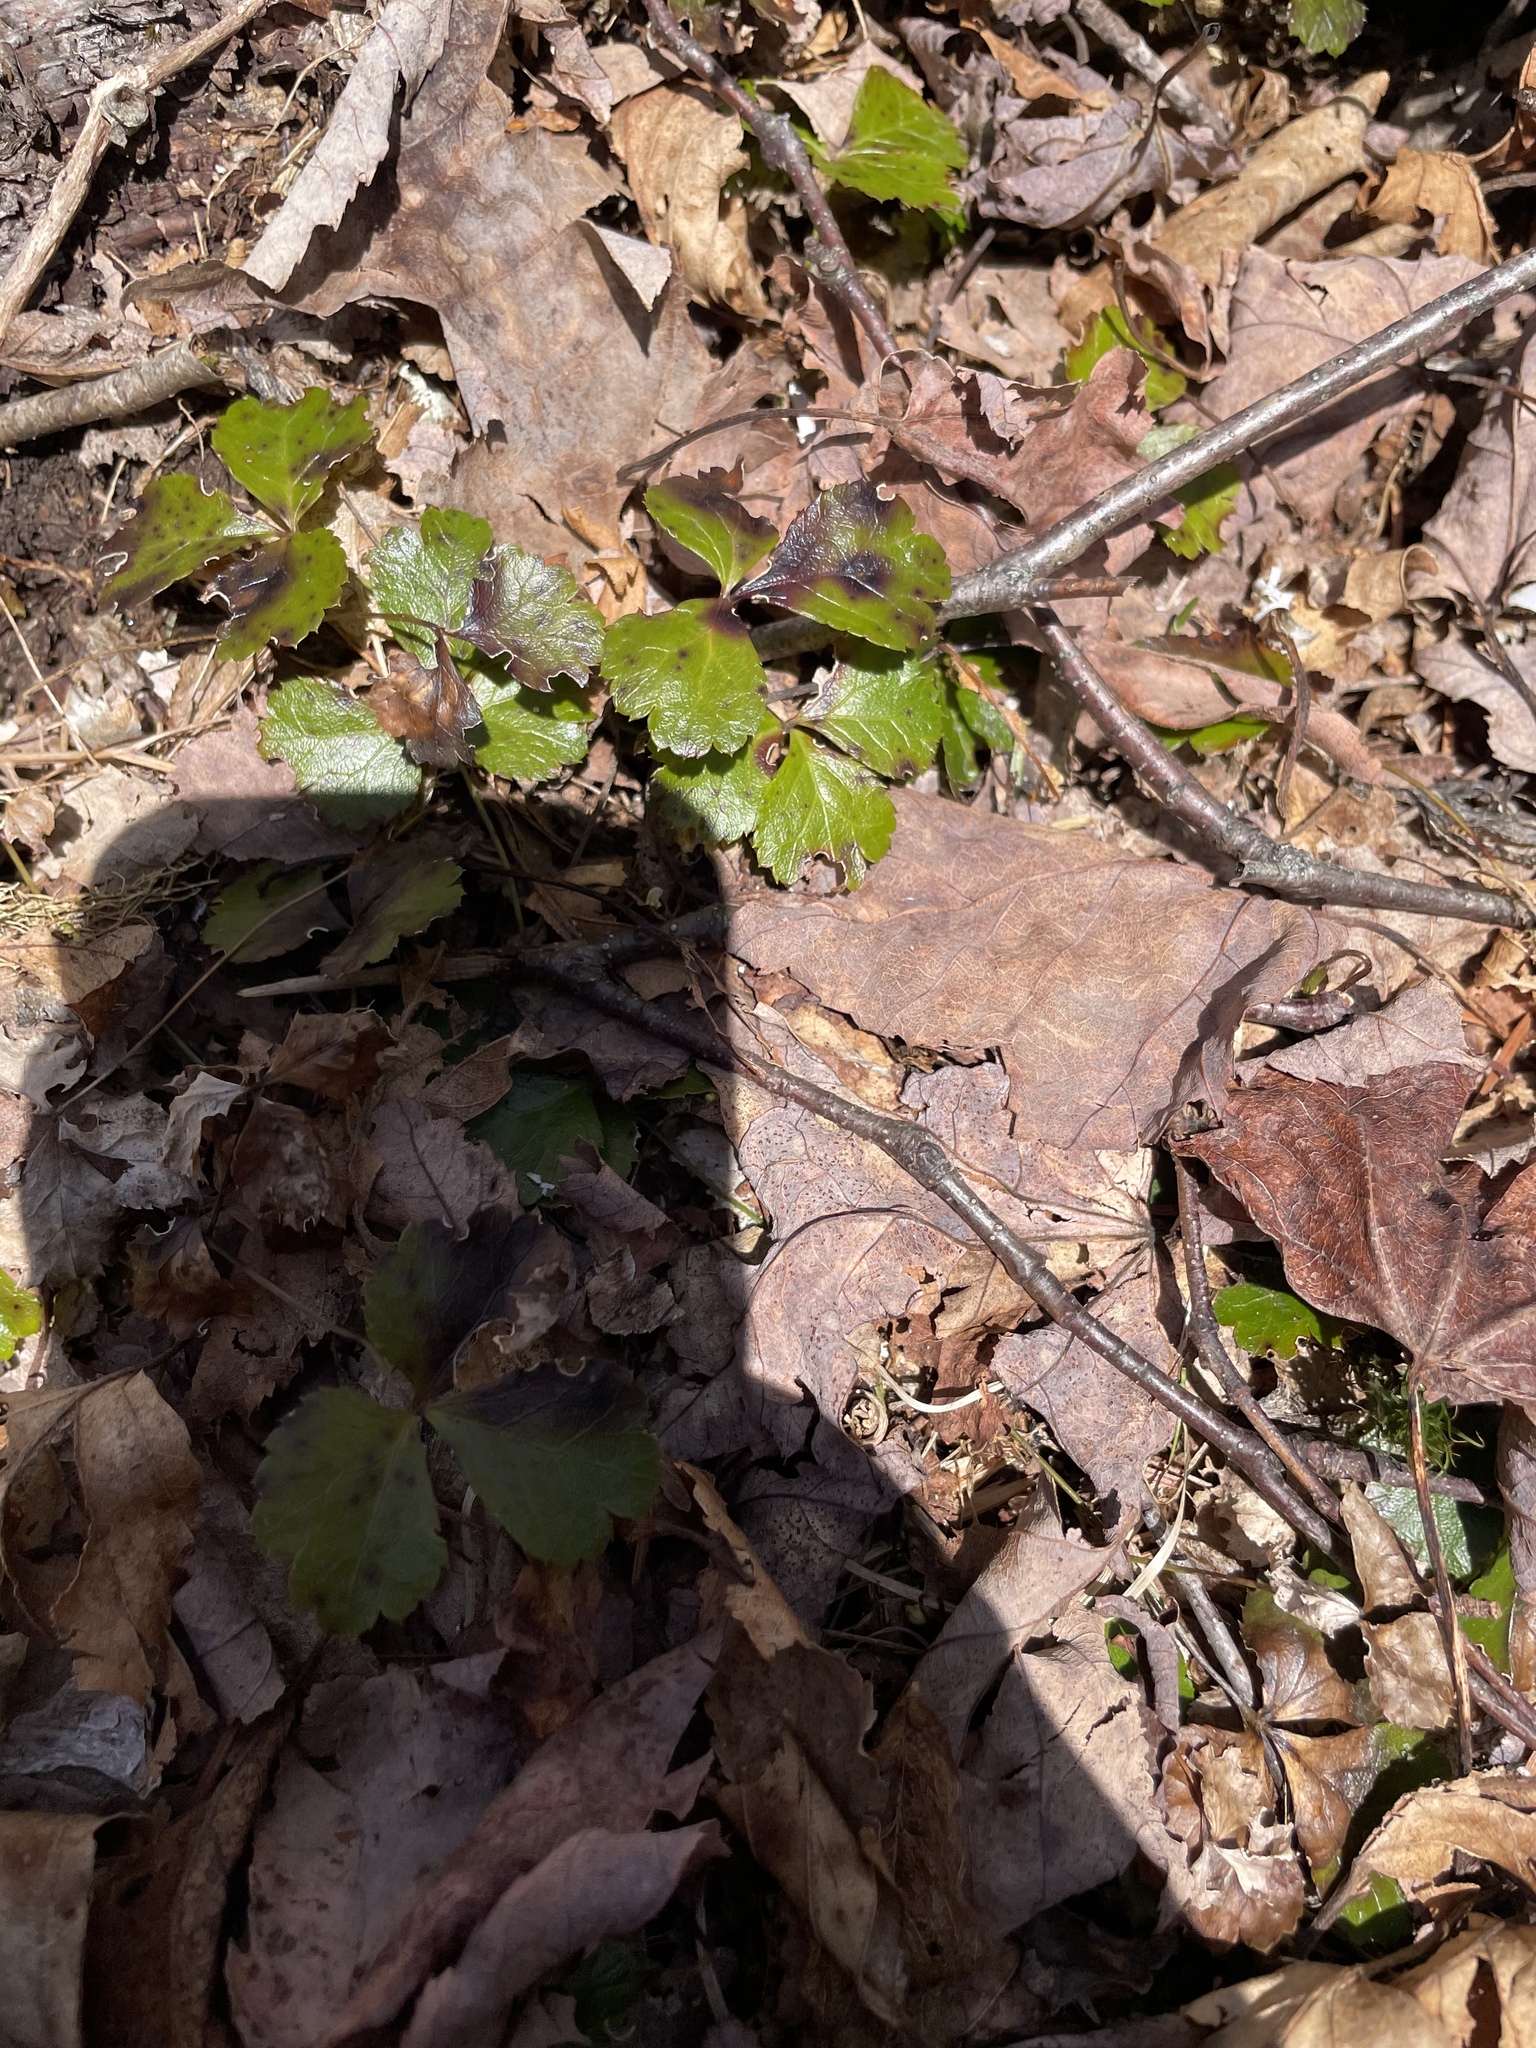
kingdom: Plantae
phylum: Tracheophyta
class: Magnoliopsida
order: Ranunculales
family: Ranunculaceae
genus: Coptis
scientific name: Coptis trifolia
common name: Canker-root
